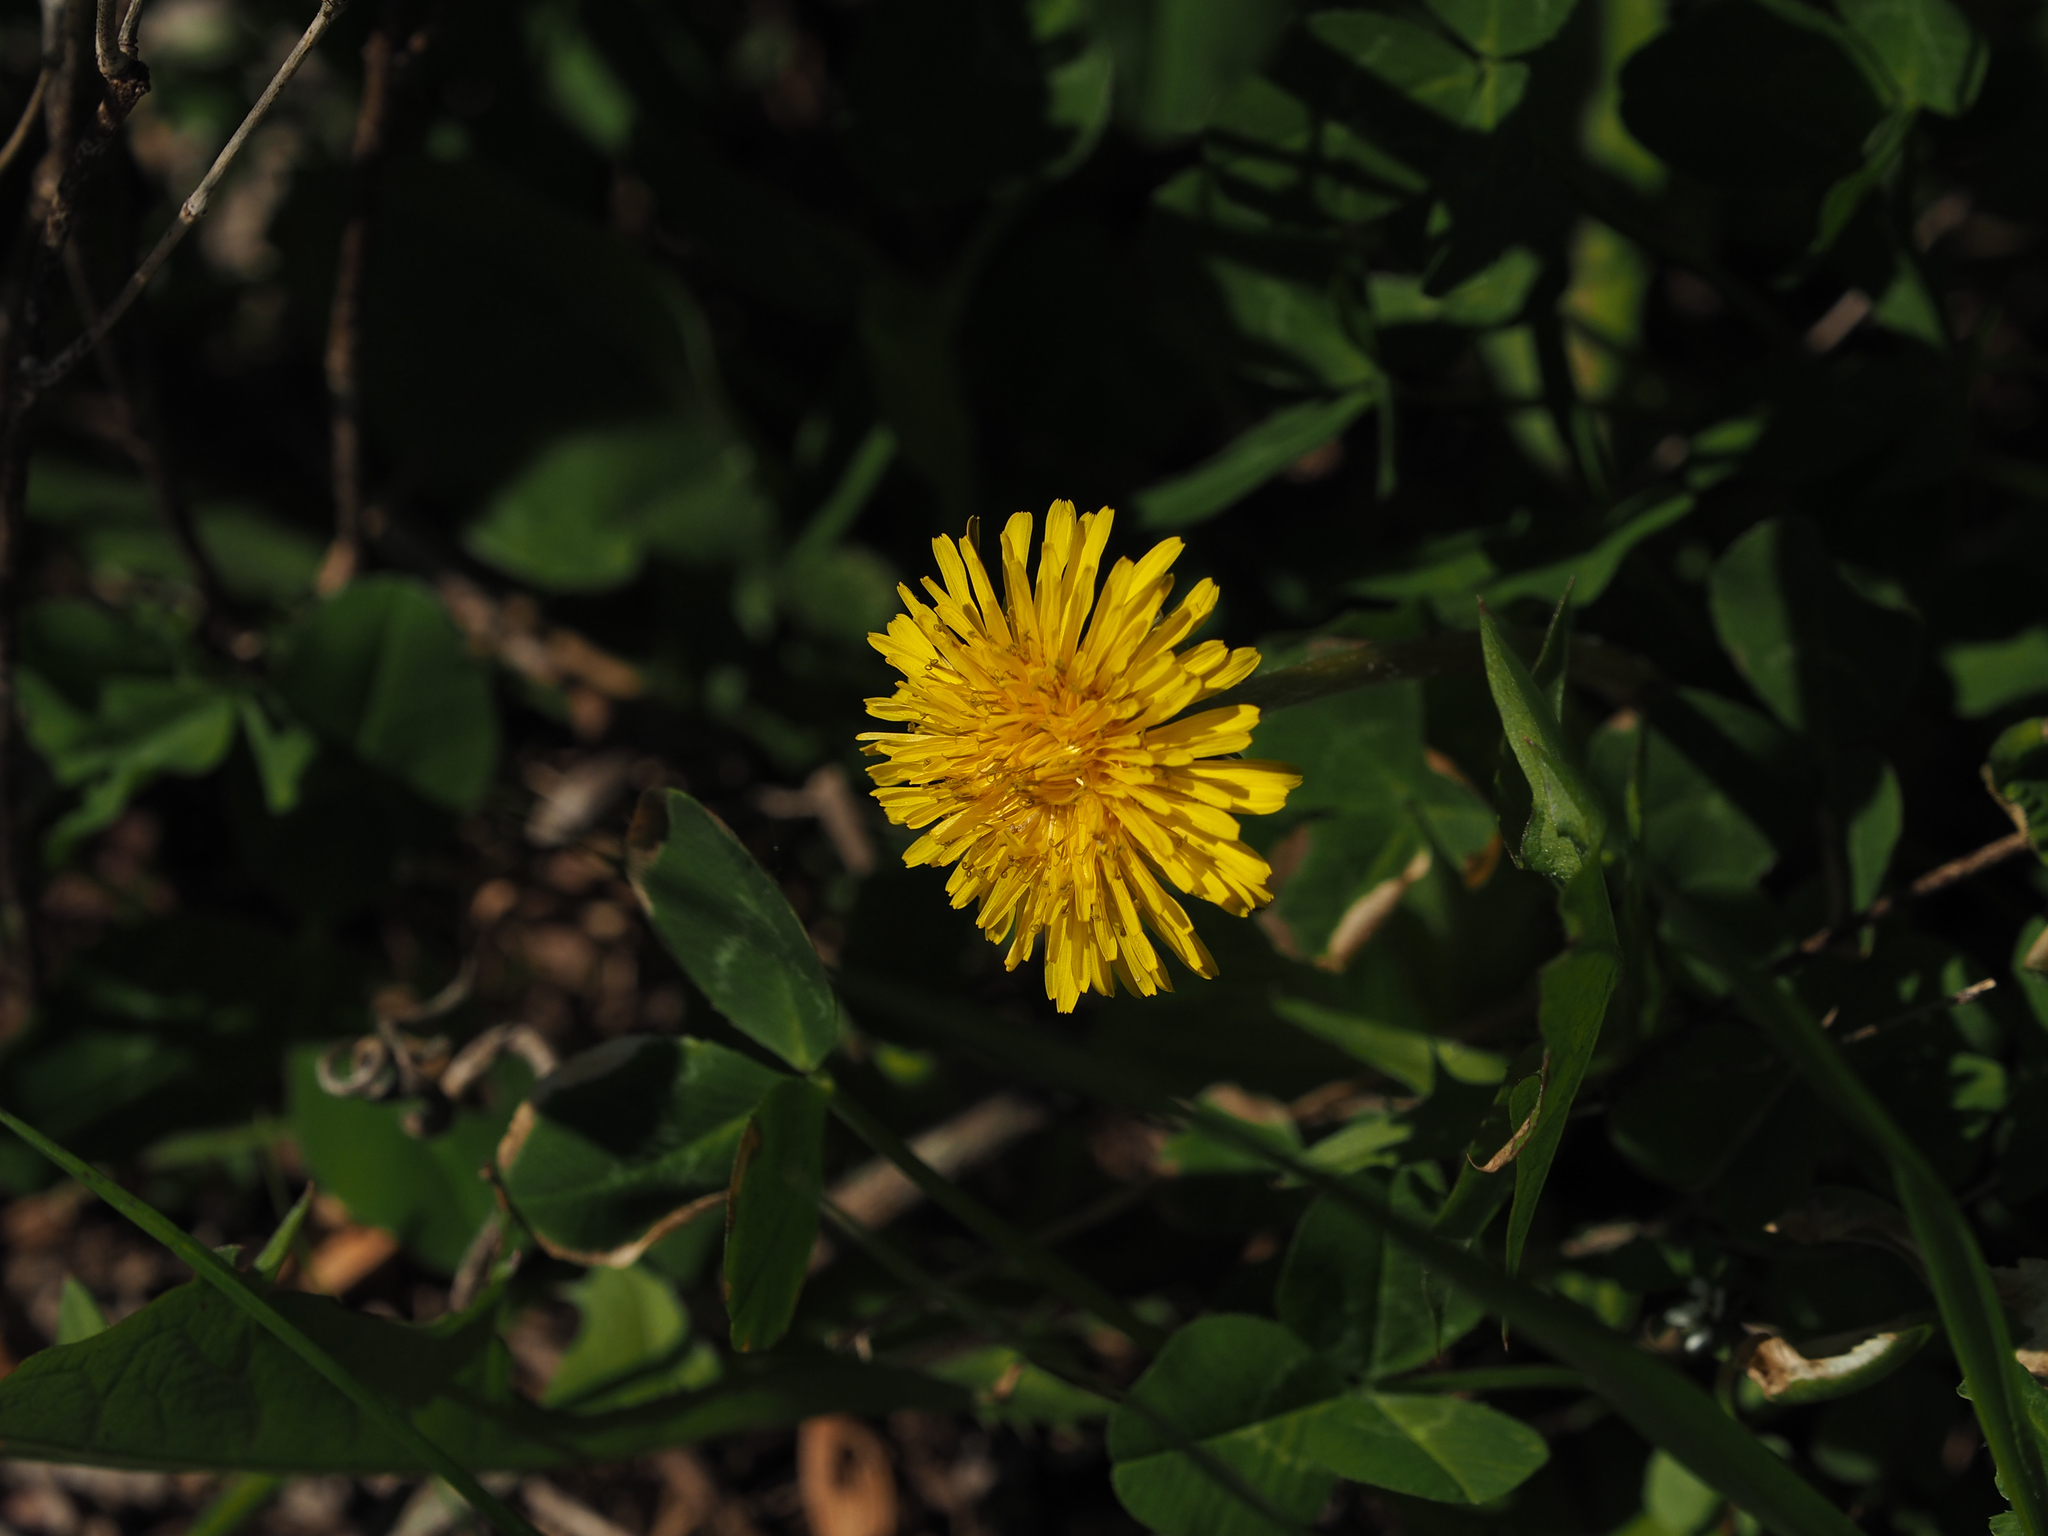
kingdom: Plantae
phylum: Tracheophyta
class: Magnoliopsida
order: Asterales
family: Asteraceae
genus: Taraxacum
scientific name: Taraxacum officinale
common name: Common dandelion
